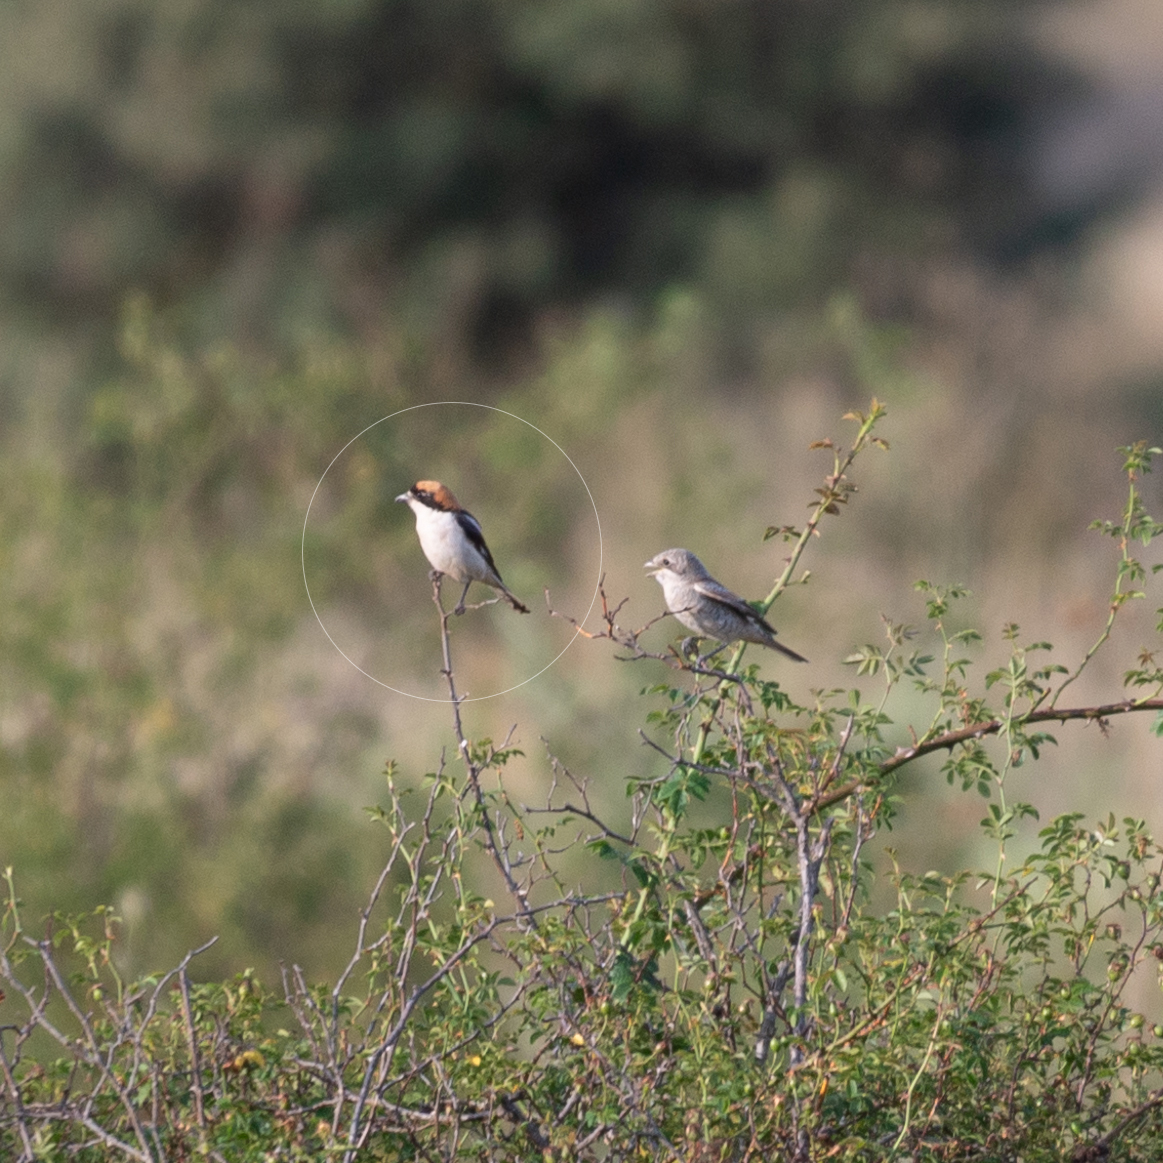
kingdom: Animalia
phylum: Chordata
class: Aves
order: Passeriformes
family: Laniidae
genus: Lanius
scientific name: Lanius senator
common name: Woodchat shrike
